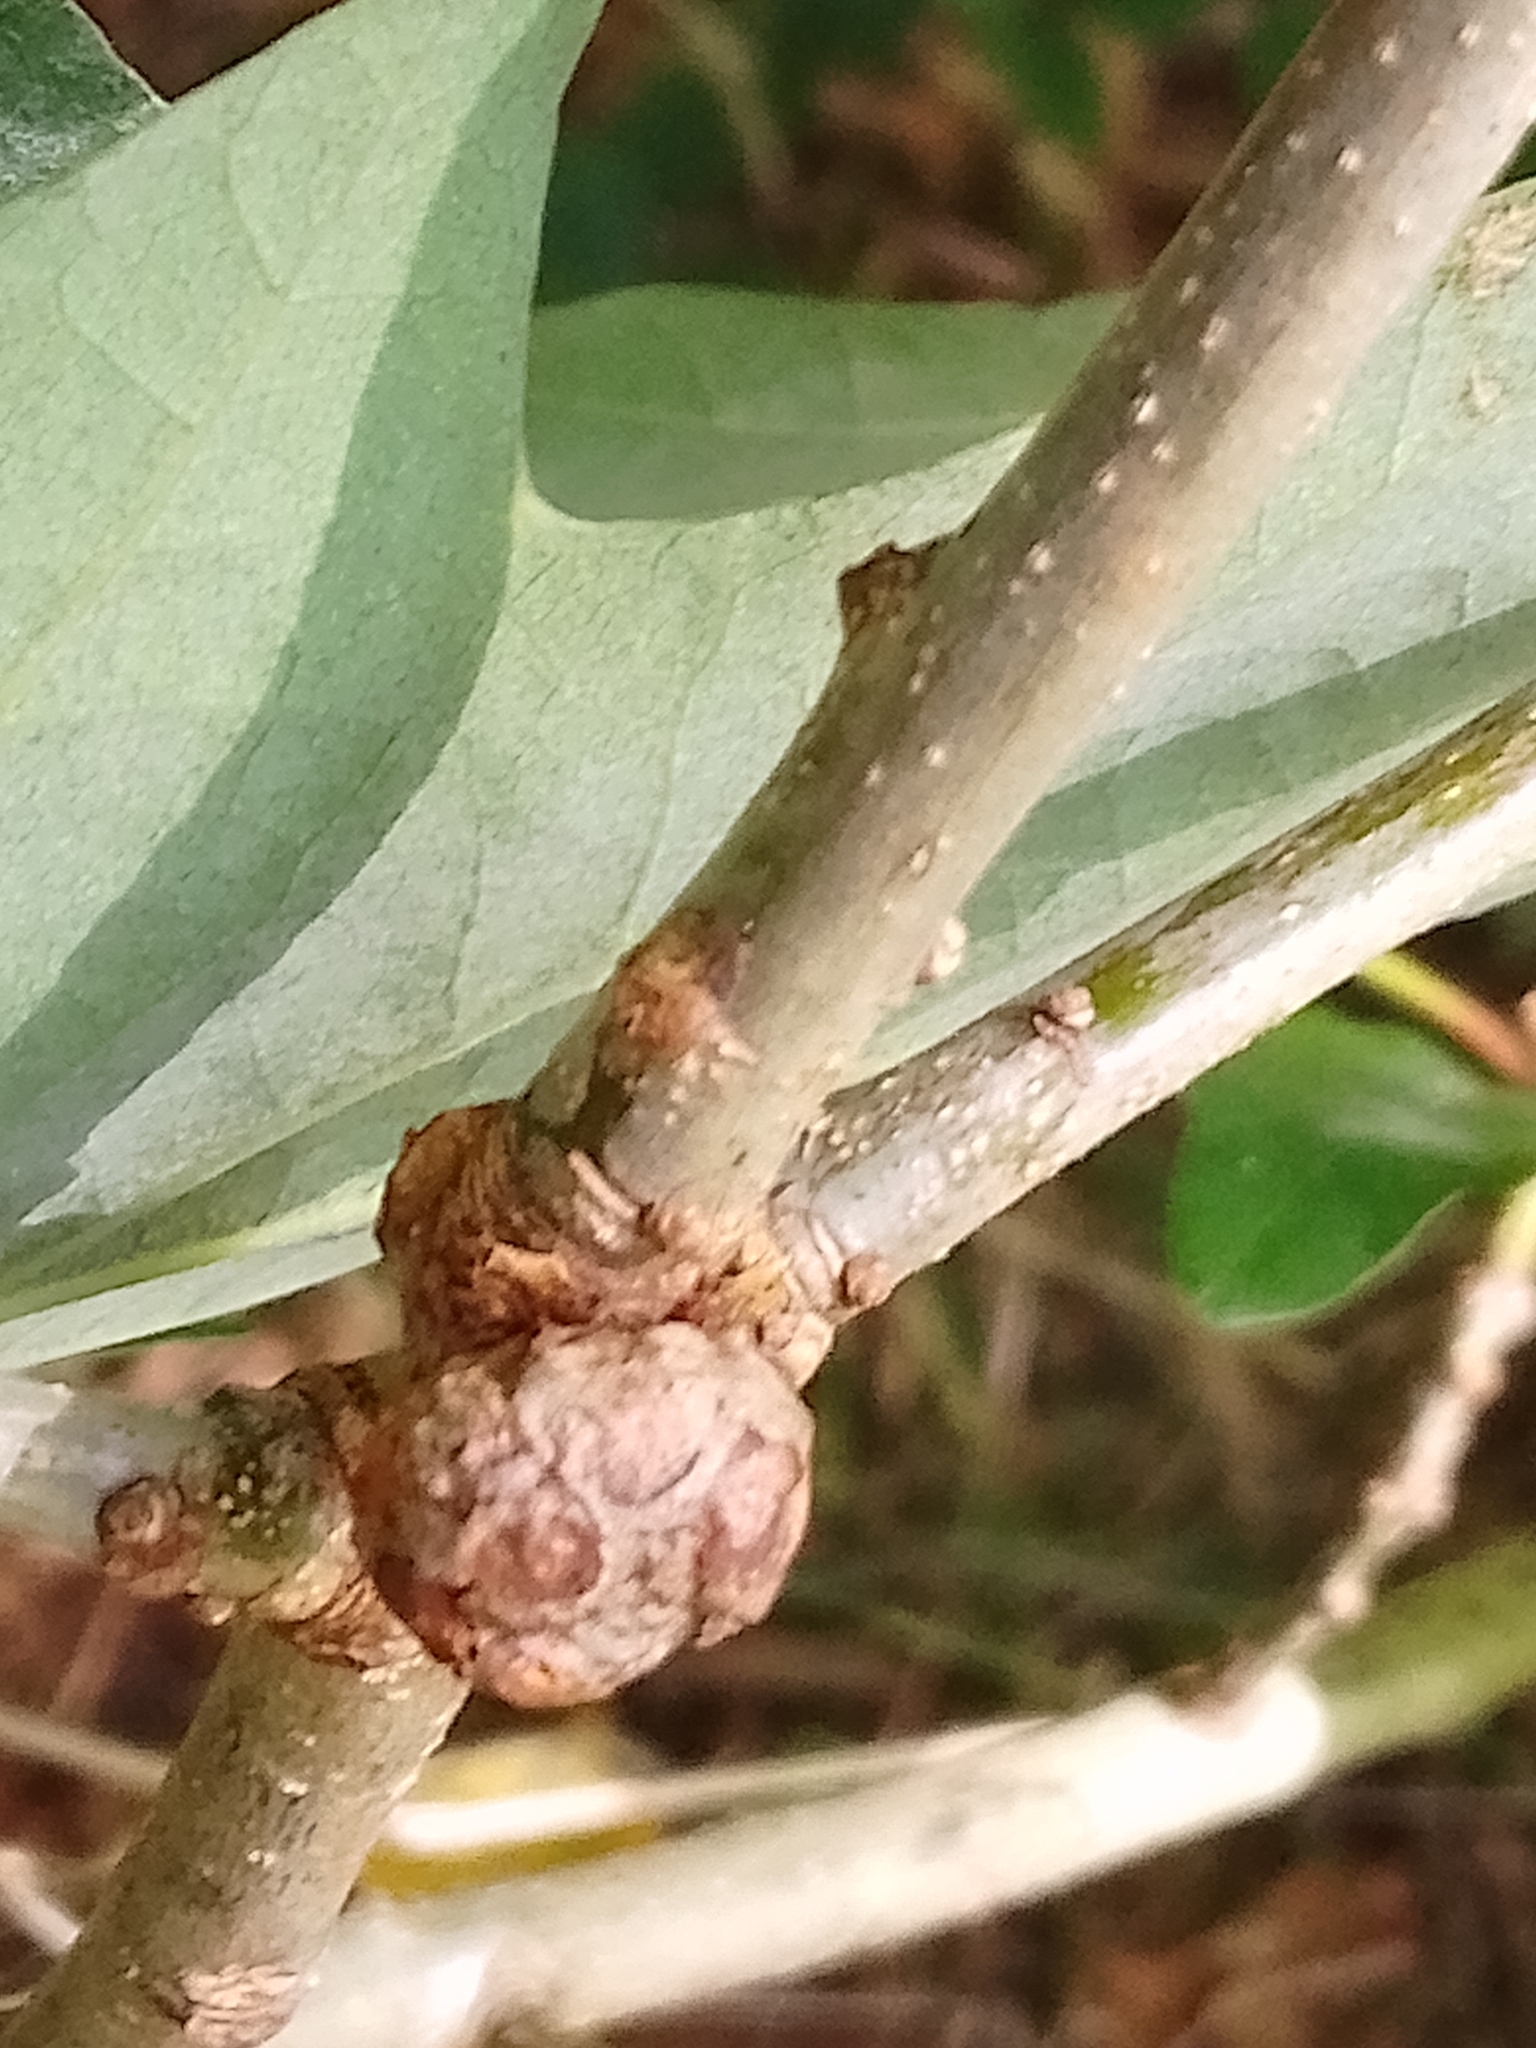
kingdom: Animalia
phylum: Arthropoda
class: Insecta
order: Hymenoptera
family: Cynipidae
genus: Andricus
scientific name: Andricus lignicolus
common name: Cola-nut gall
